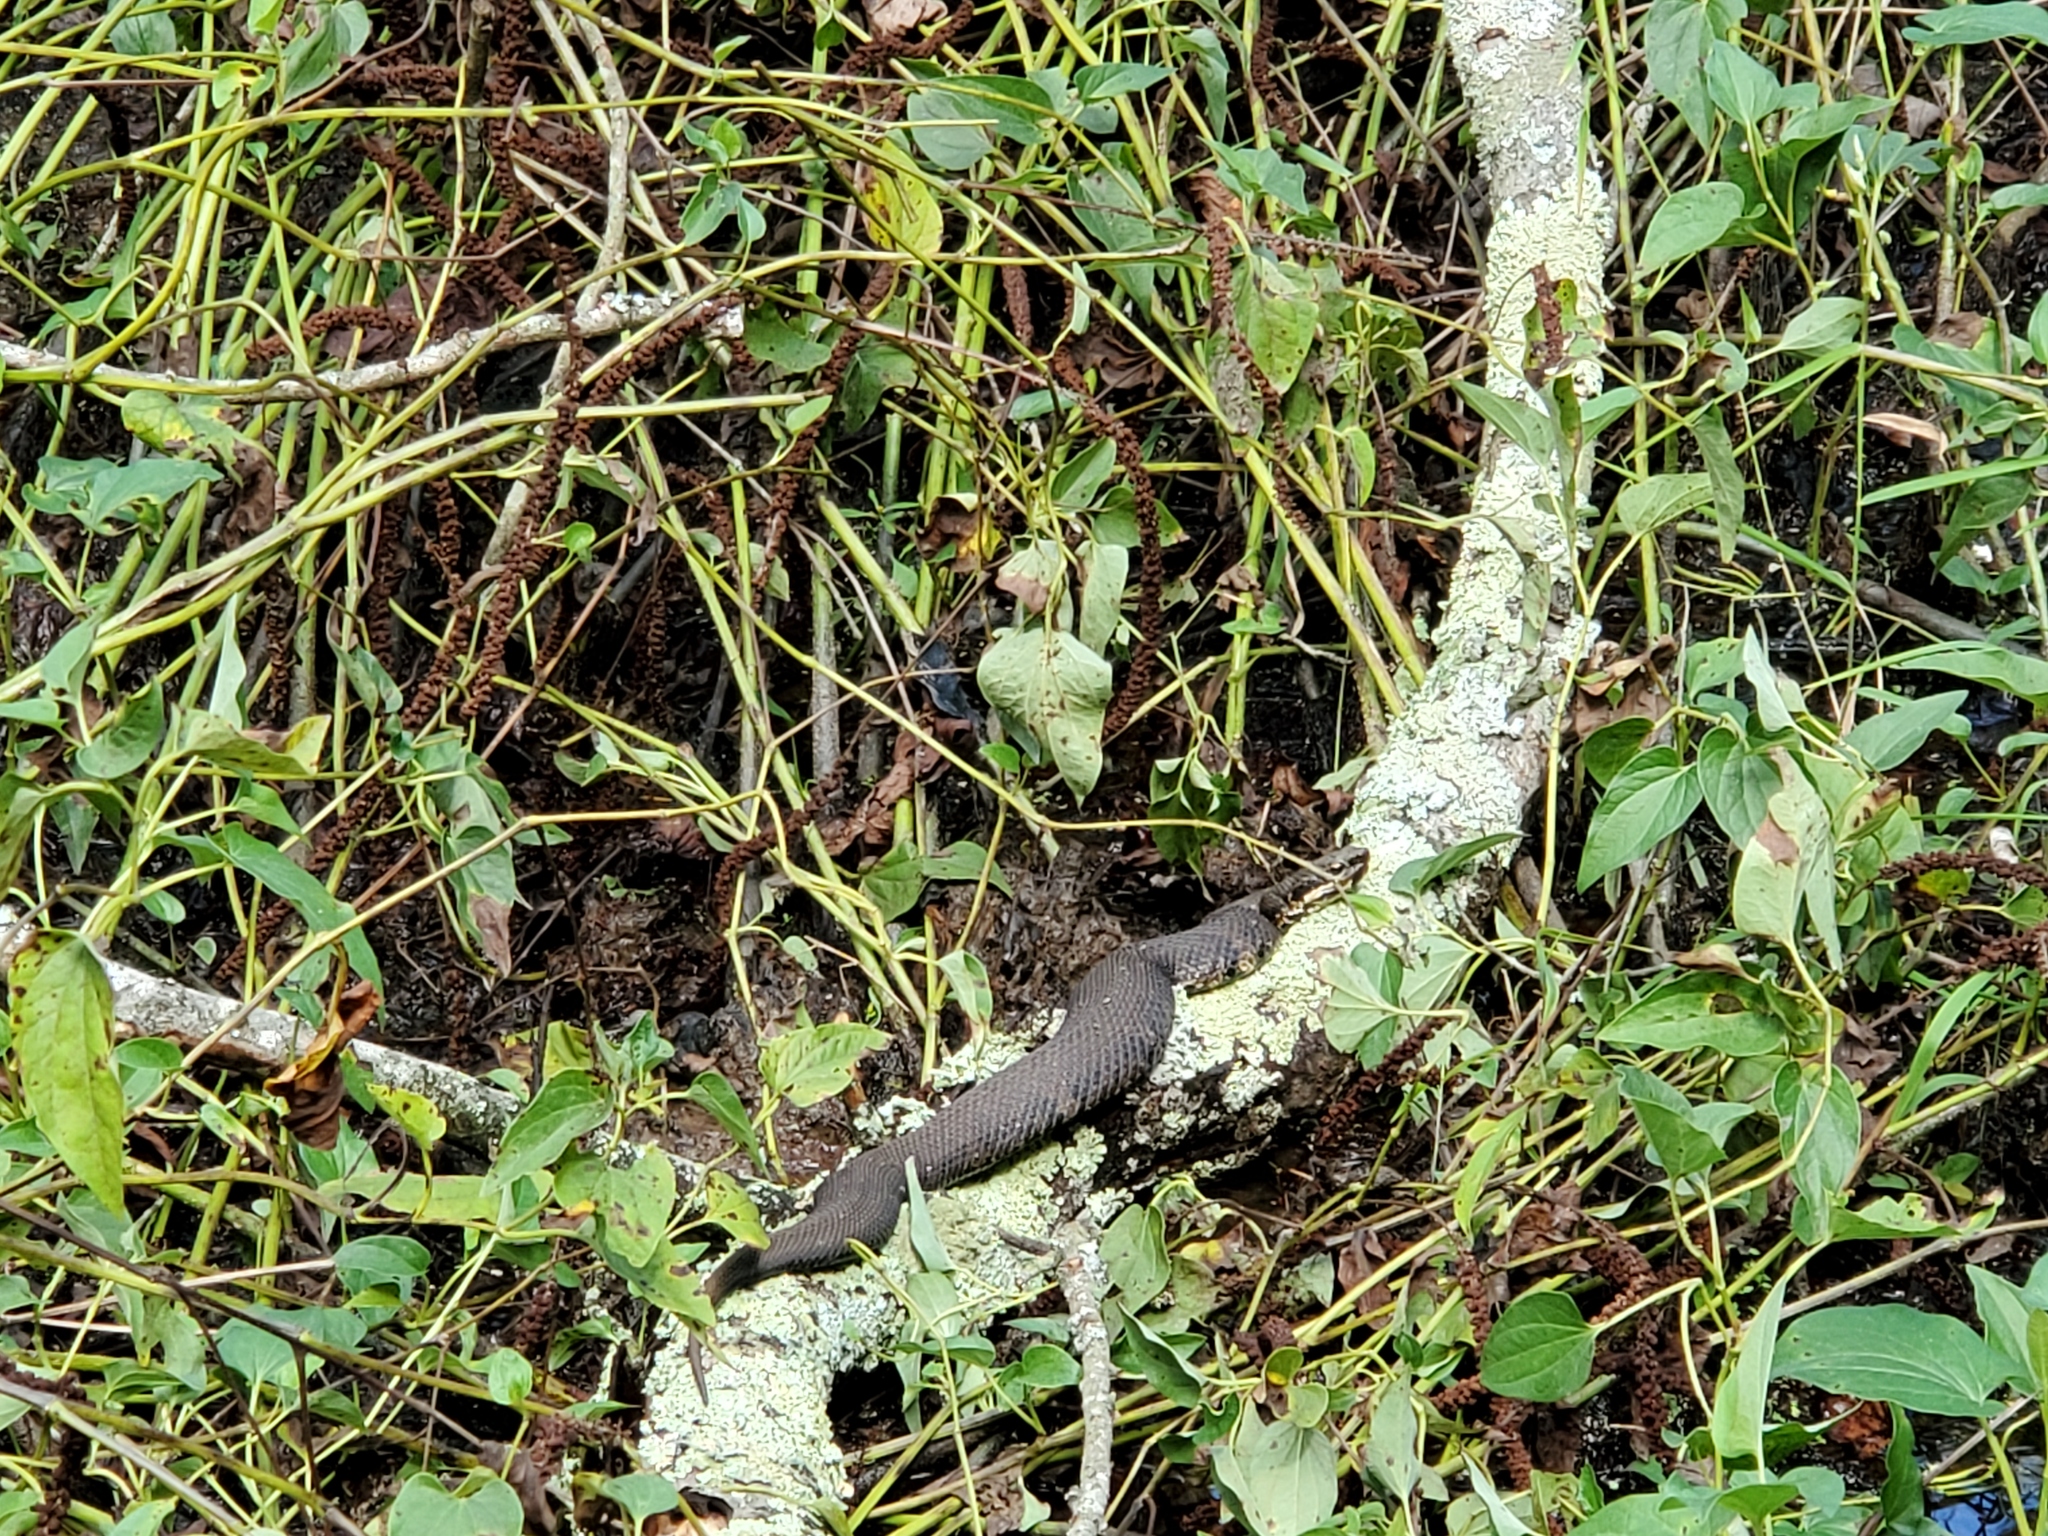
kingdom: Animalia
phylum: Chordata
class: Squamata
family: Viperidae
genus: Agkistrodon
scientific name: Agkistrodon piscivorus
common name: Cottonmouth
